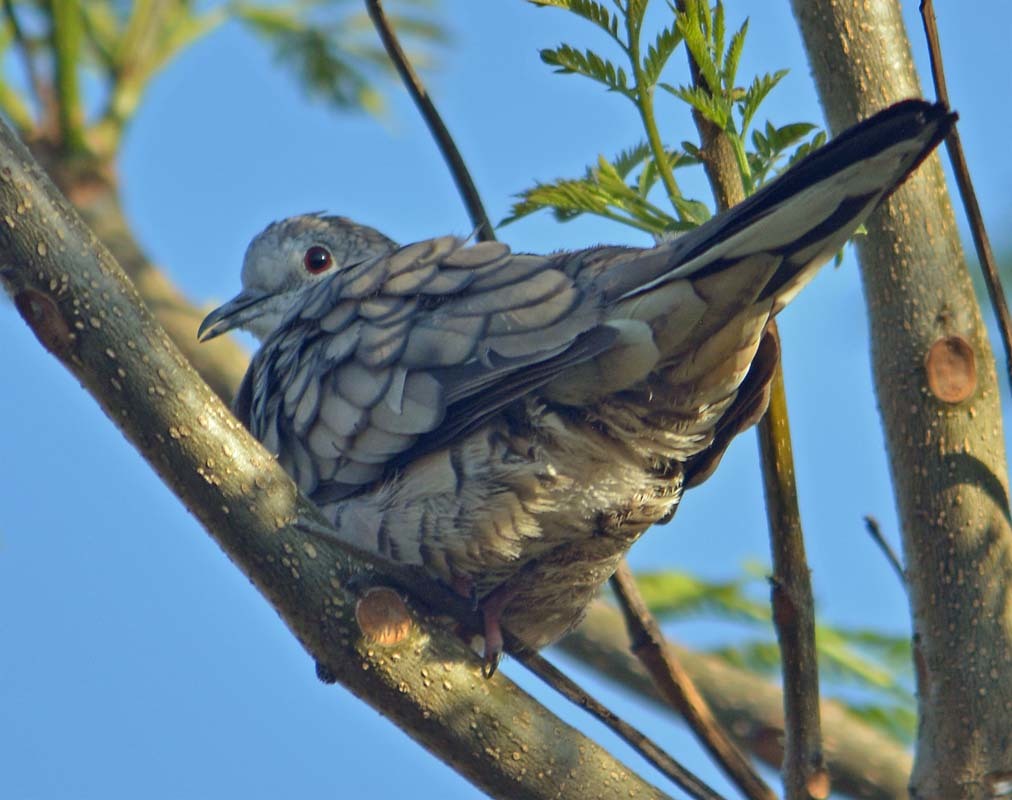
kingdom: Animalia
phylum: Chordata
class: Aves
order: Columbiformes
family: Columbidae
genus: Columbina
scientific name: Columbina inca
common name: Inca dove
